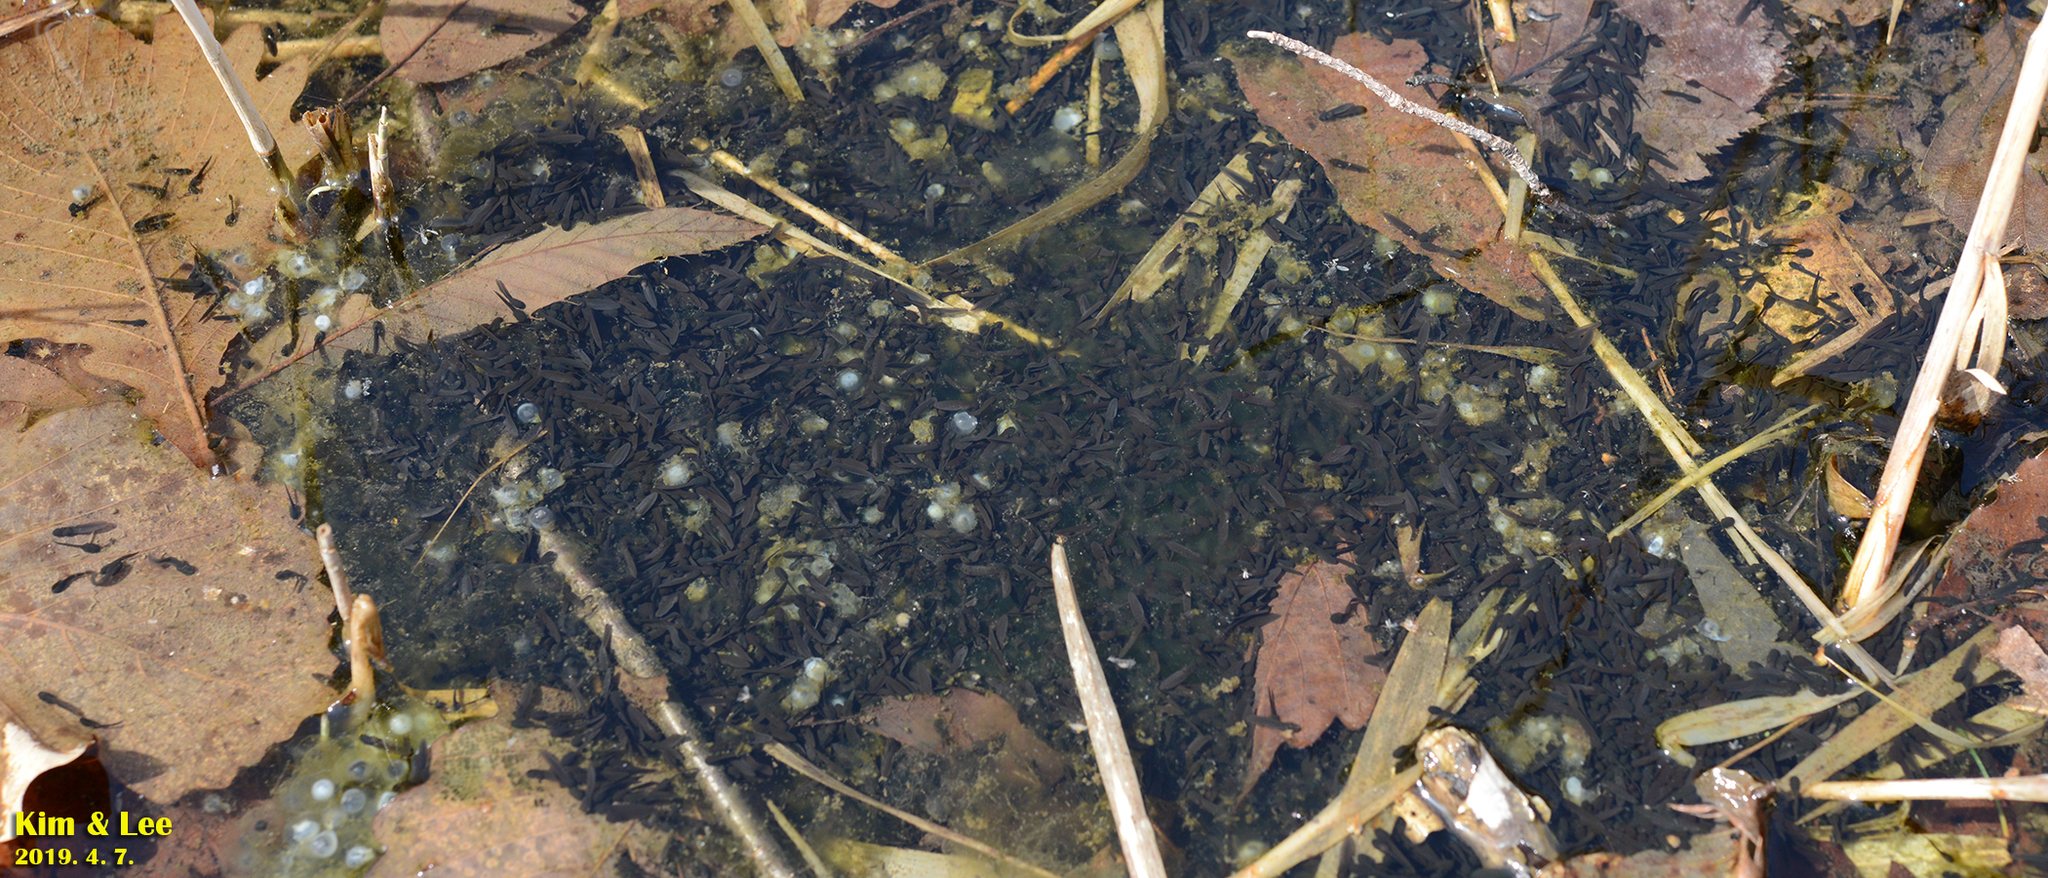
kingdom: Animalia
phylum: Chordata
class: Amphibia
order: Anura
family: Ranidae
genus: Rana
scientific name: Rana huanrenensis
